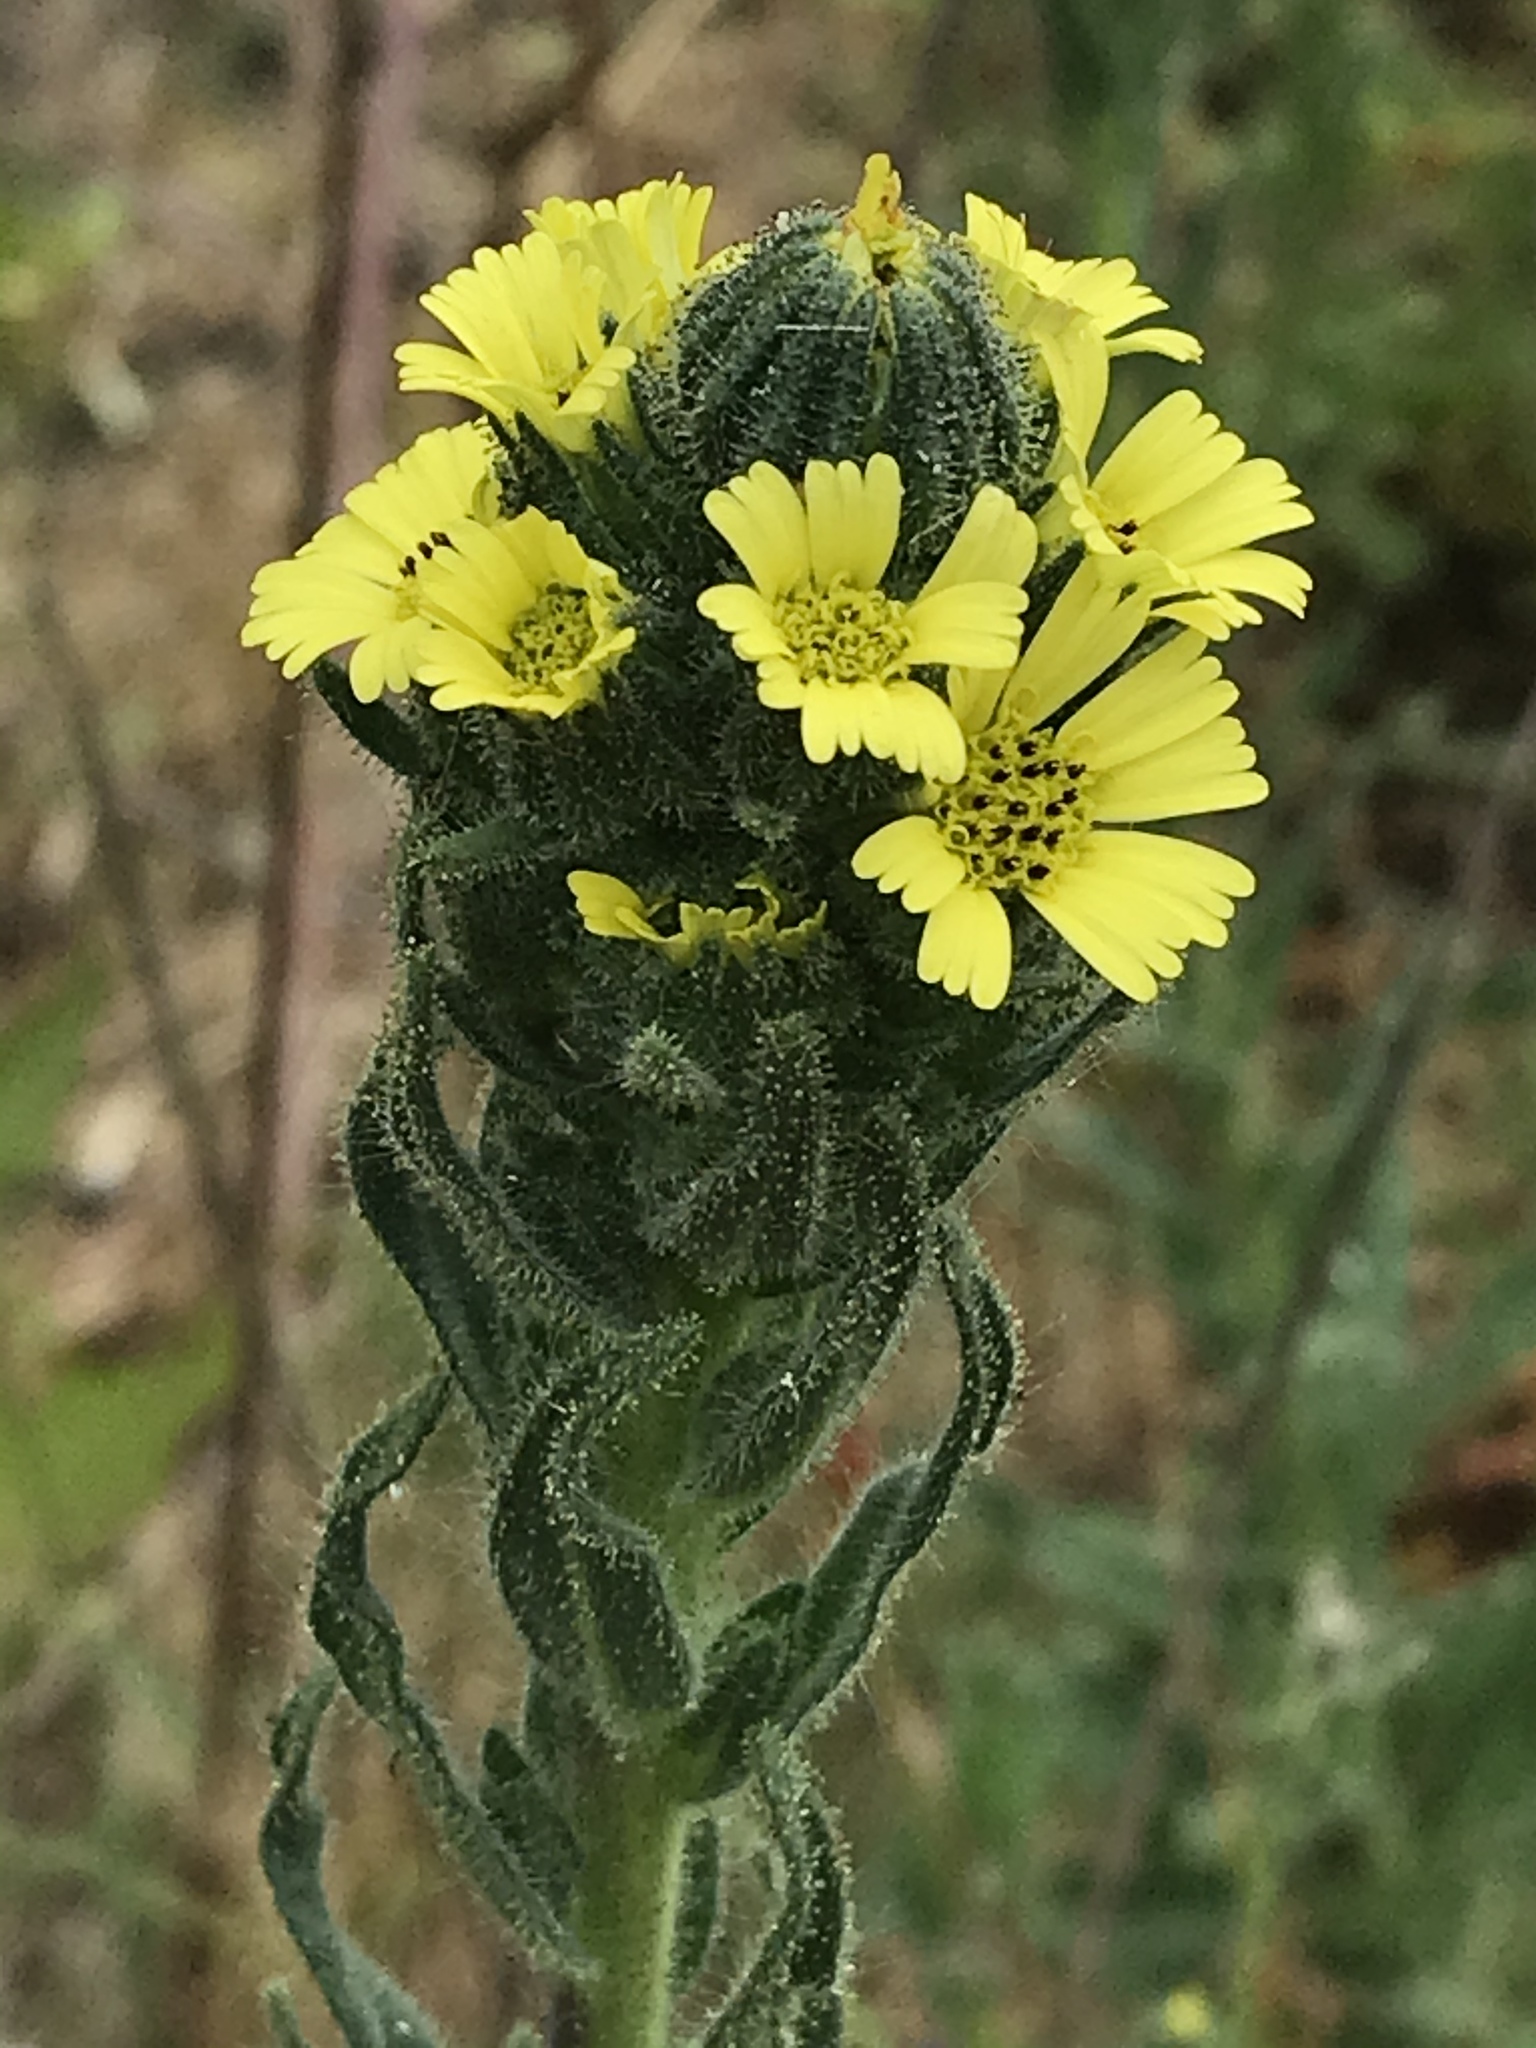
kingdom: Plantae
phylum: Tracheophyta
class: Magnoliopsida
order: Asterales
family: Asteraceae
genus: Madia
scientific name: Madia sativa
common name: Coast tarweed
